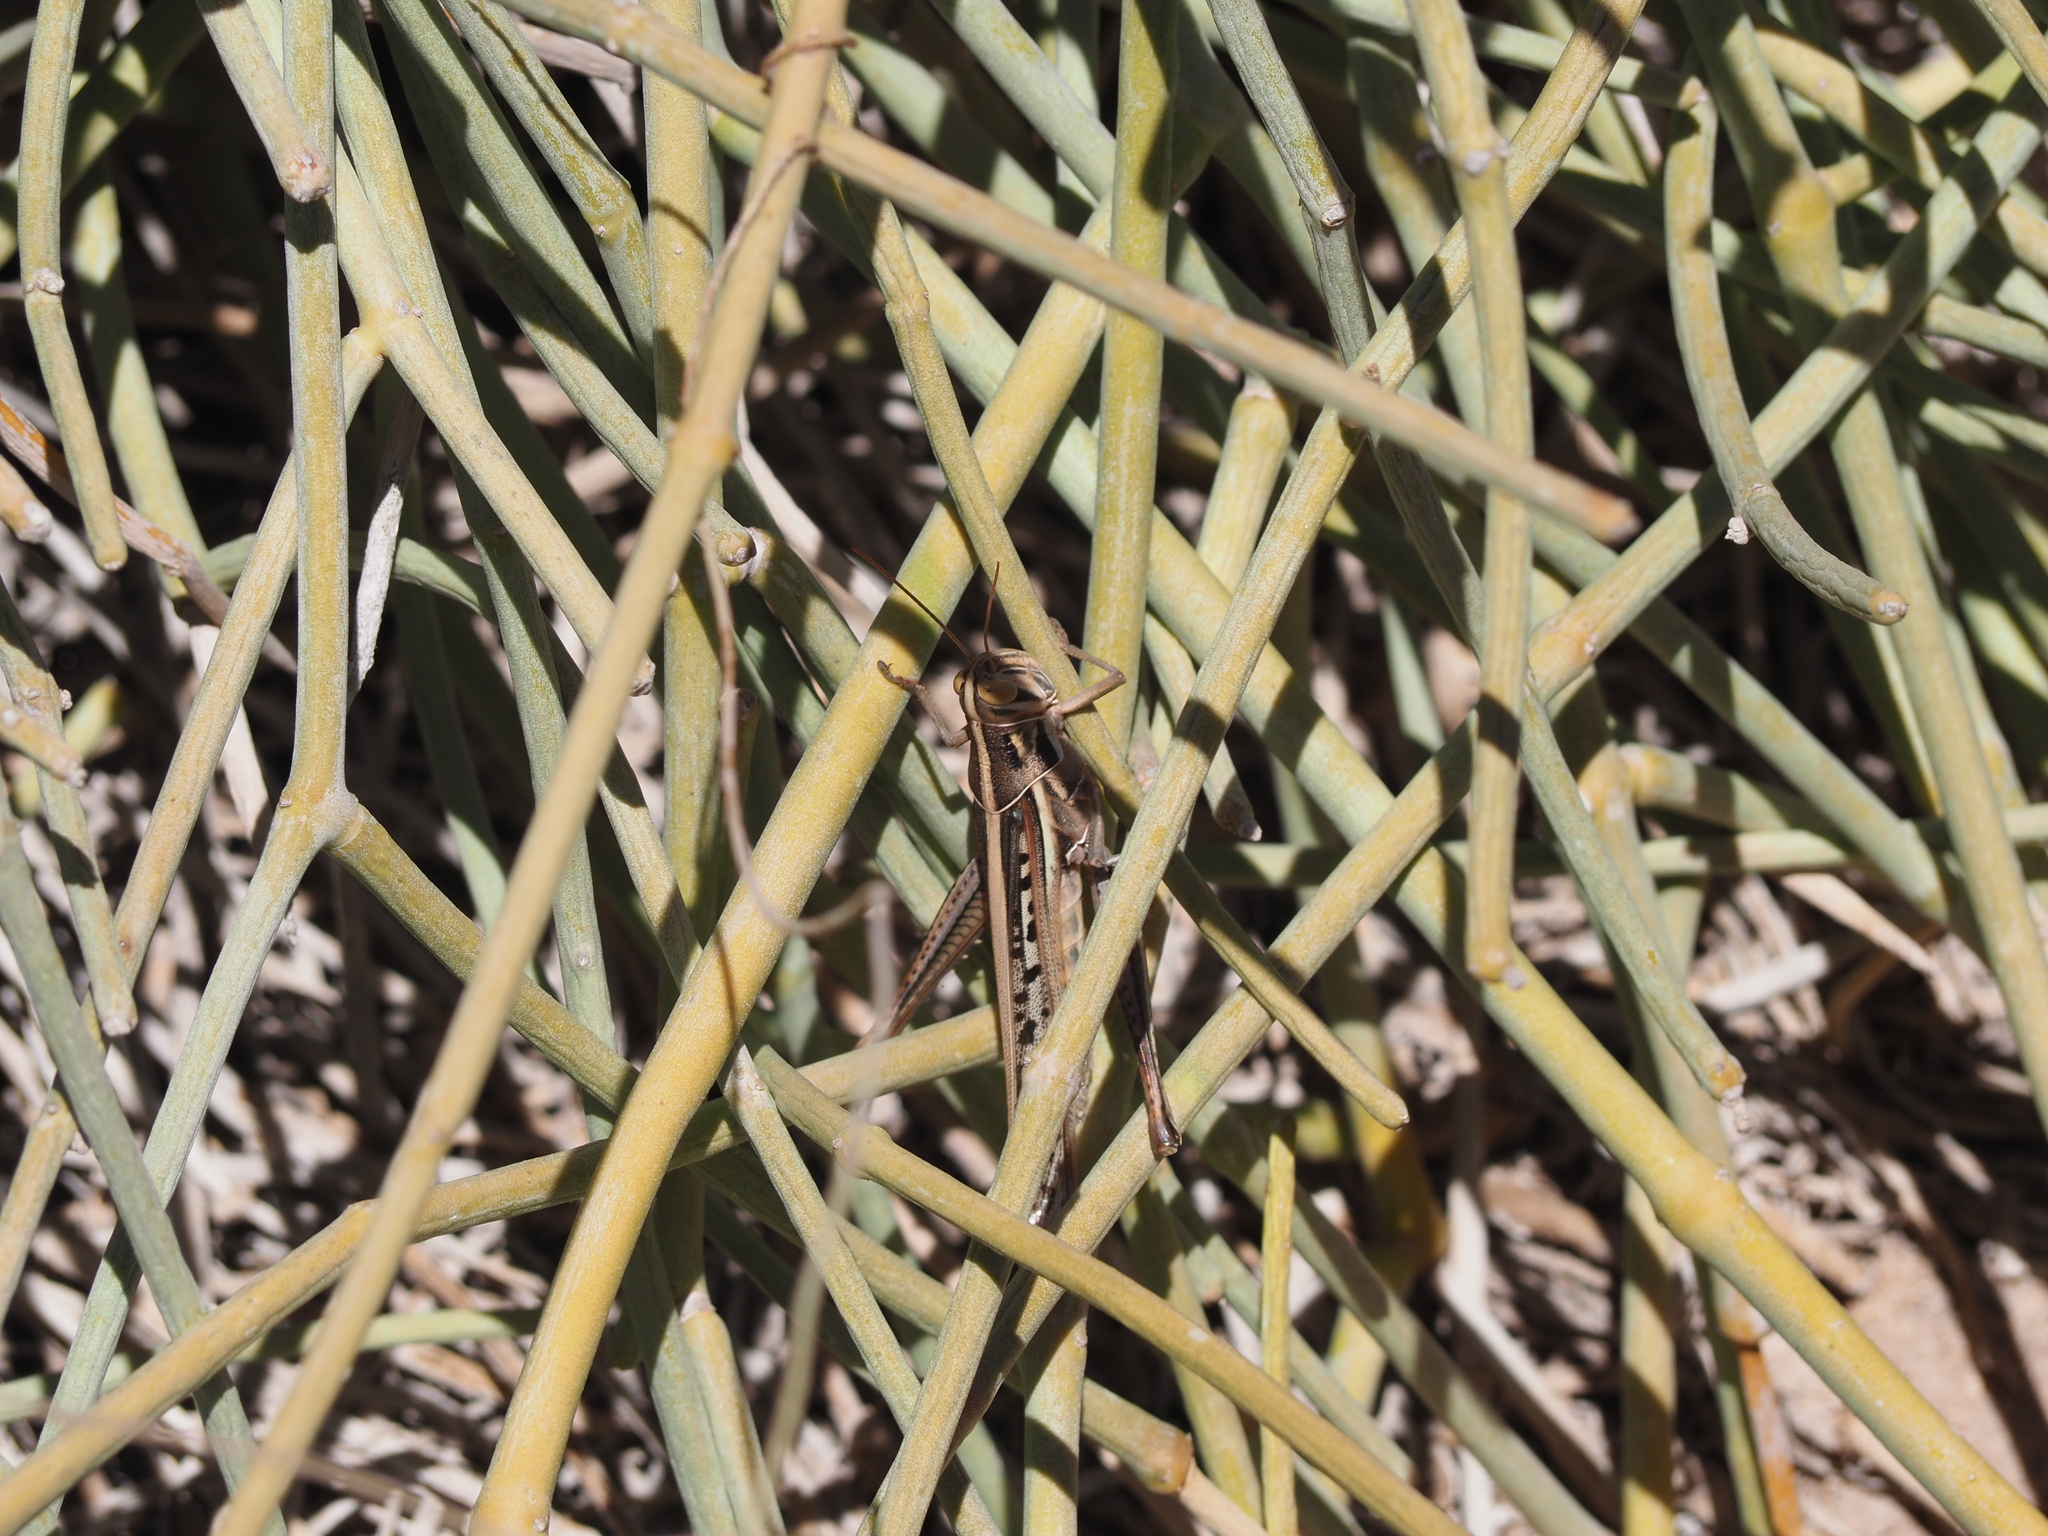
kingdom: Animalia
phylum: Arthropoda
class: Insecta
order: Orthoptera
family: Acrididae
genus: Austracris
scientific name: Austracris guttulosa
